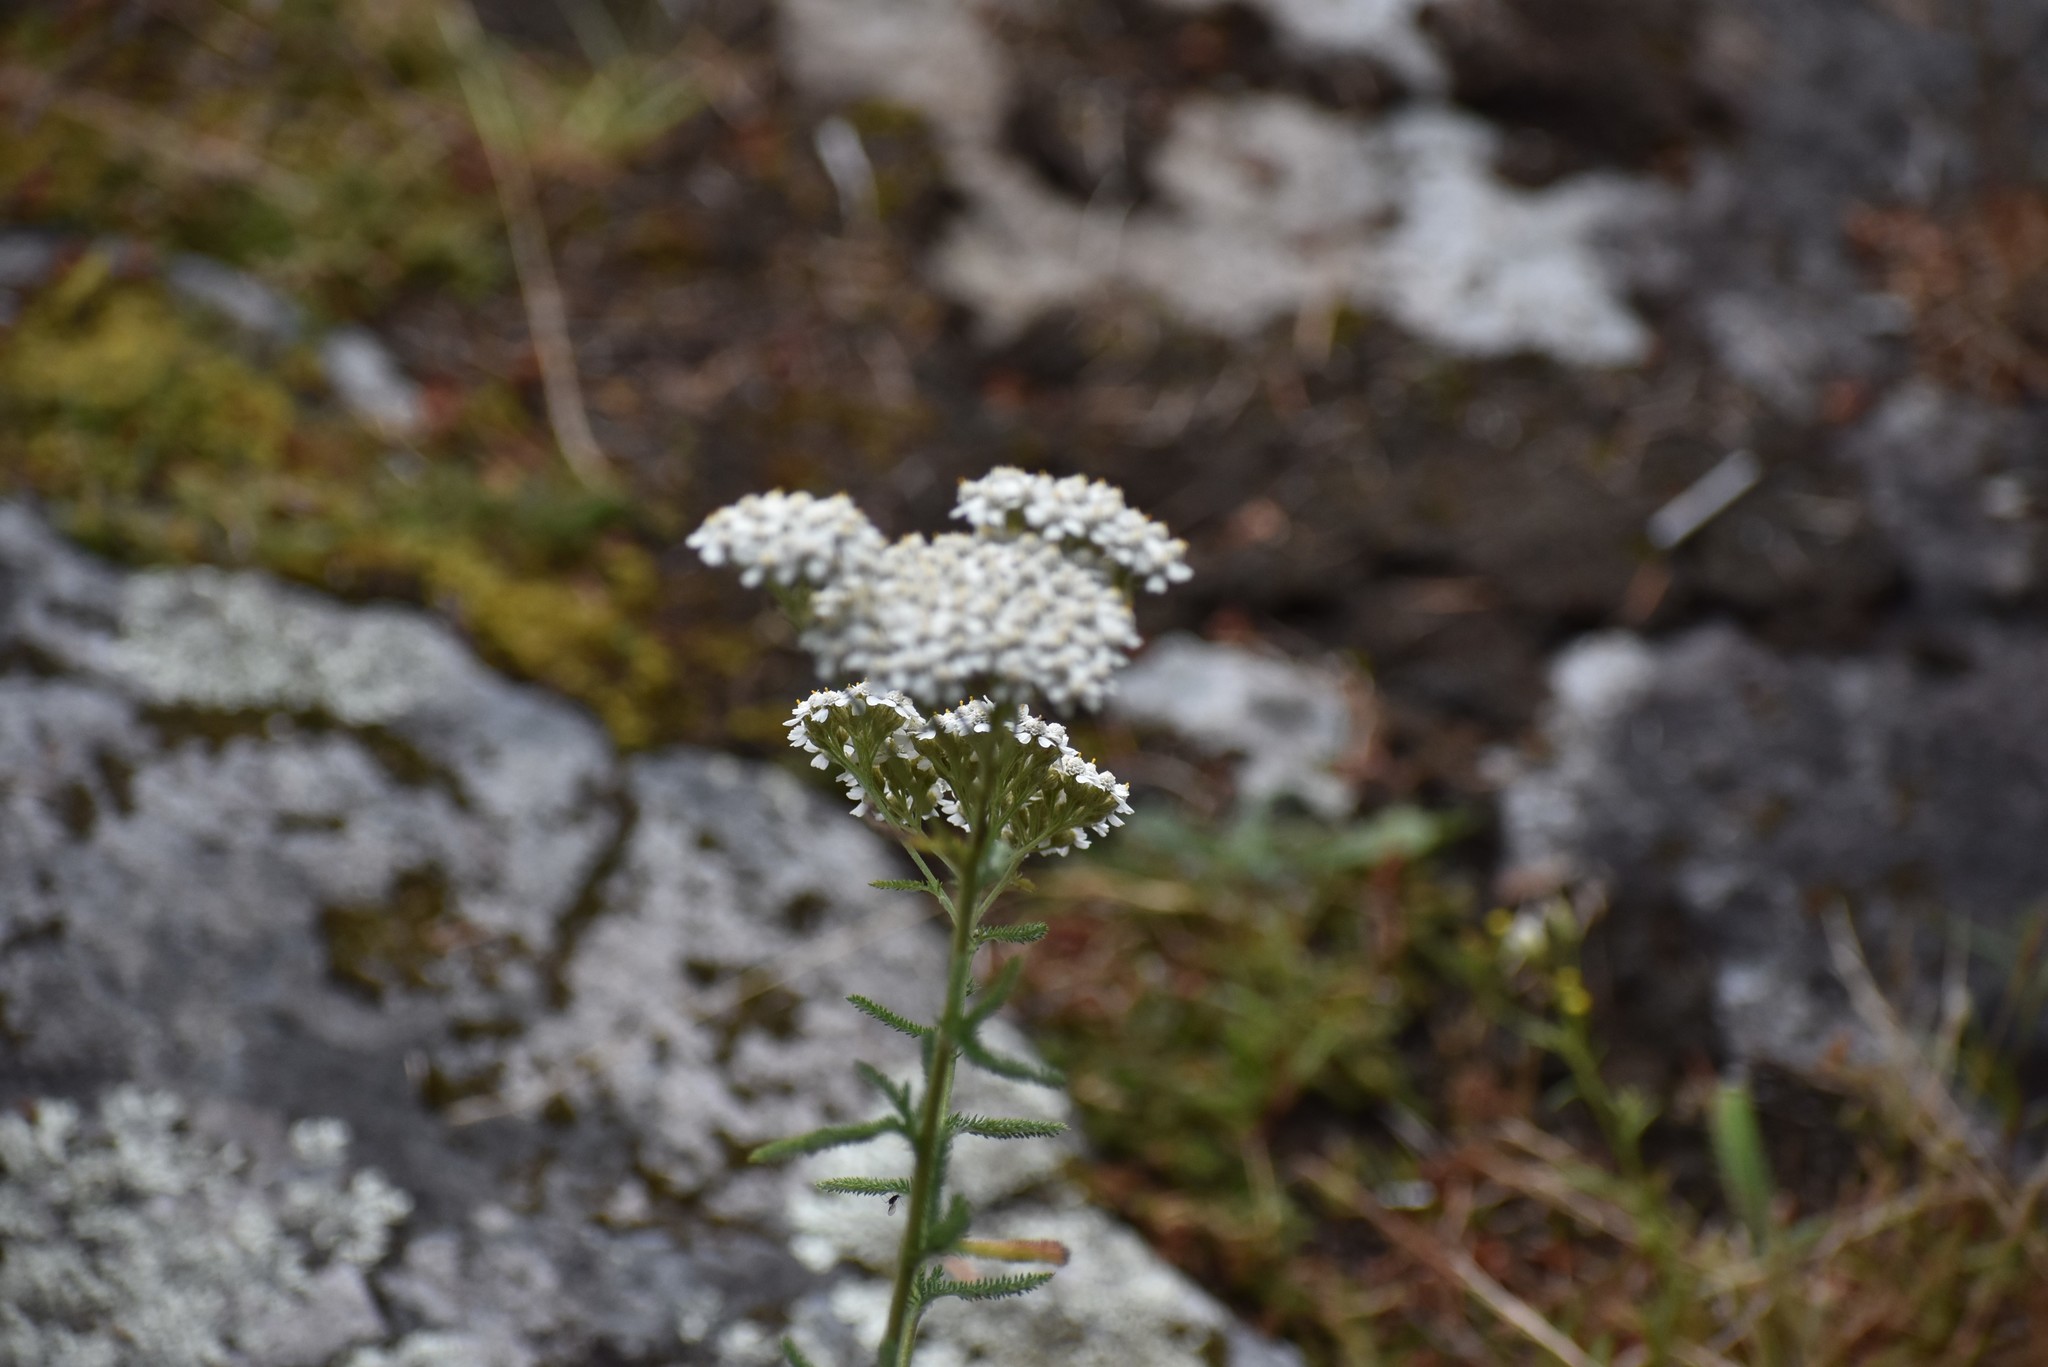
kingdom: Plantae
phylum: Tracheophyta
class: Magnoliopsida
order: Asterales
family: Asteraceae
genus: Achillea
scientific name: Achillea millefolium
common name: Yarrow
